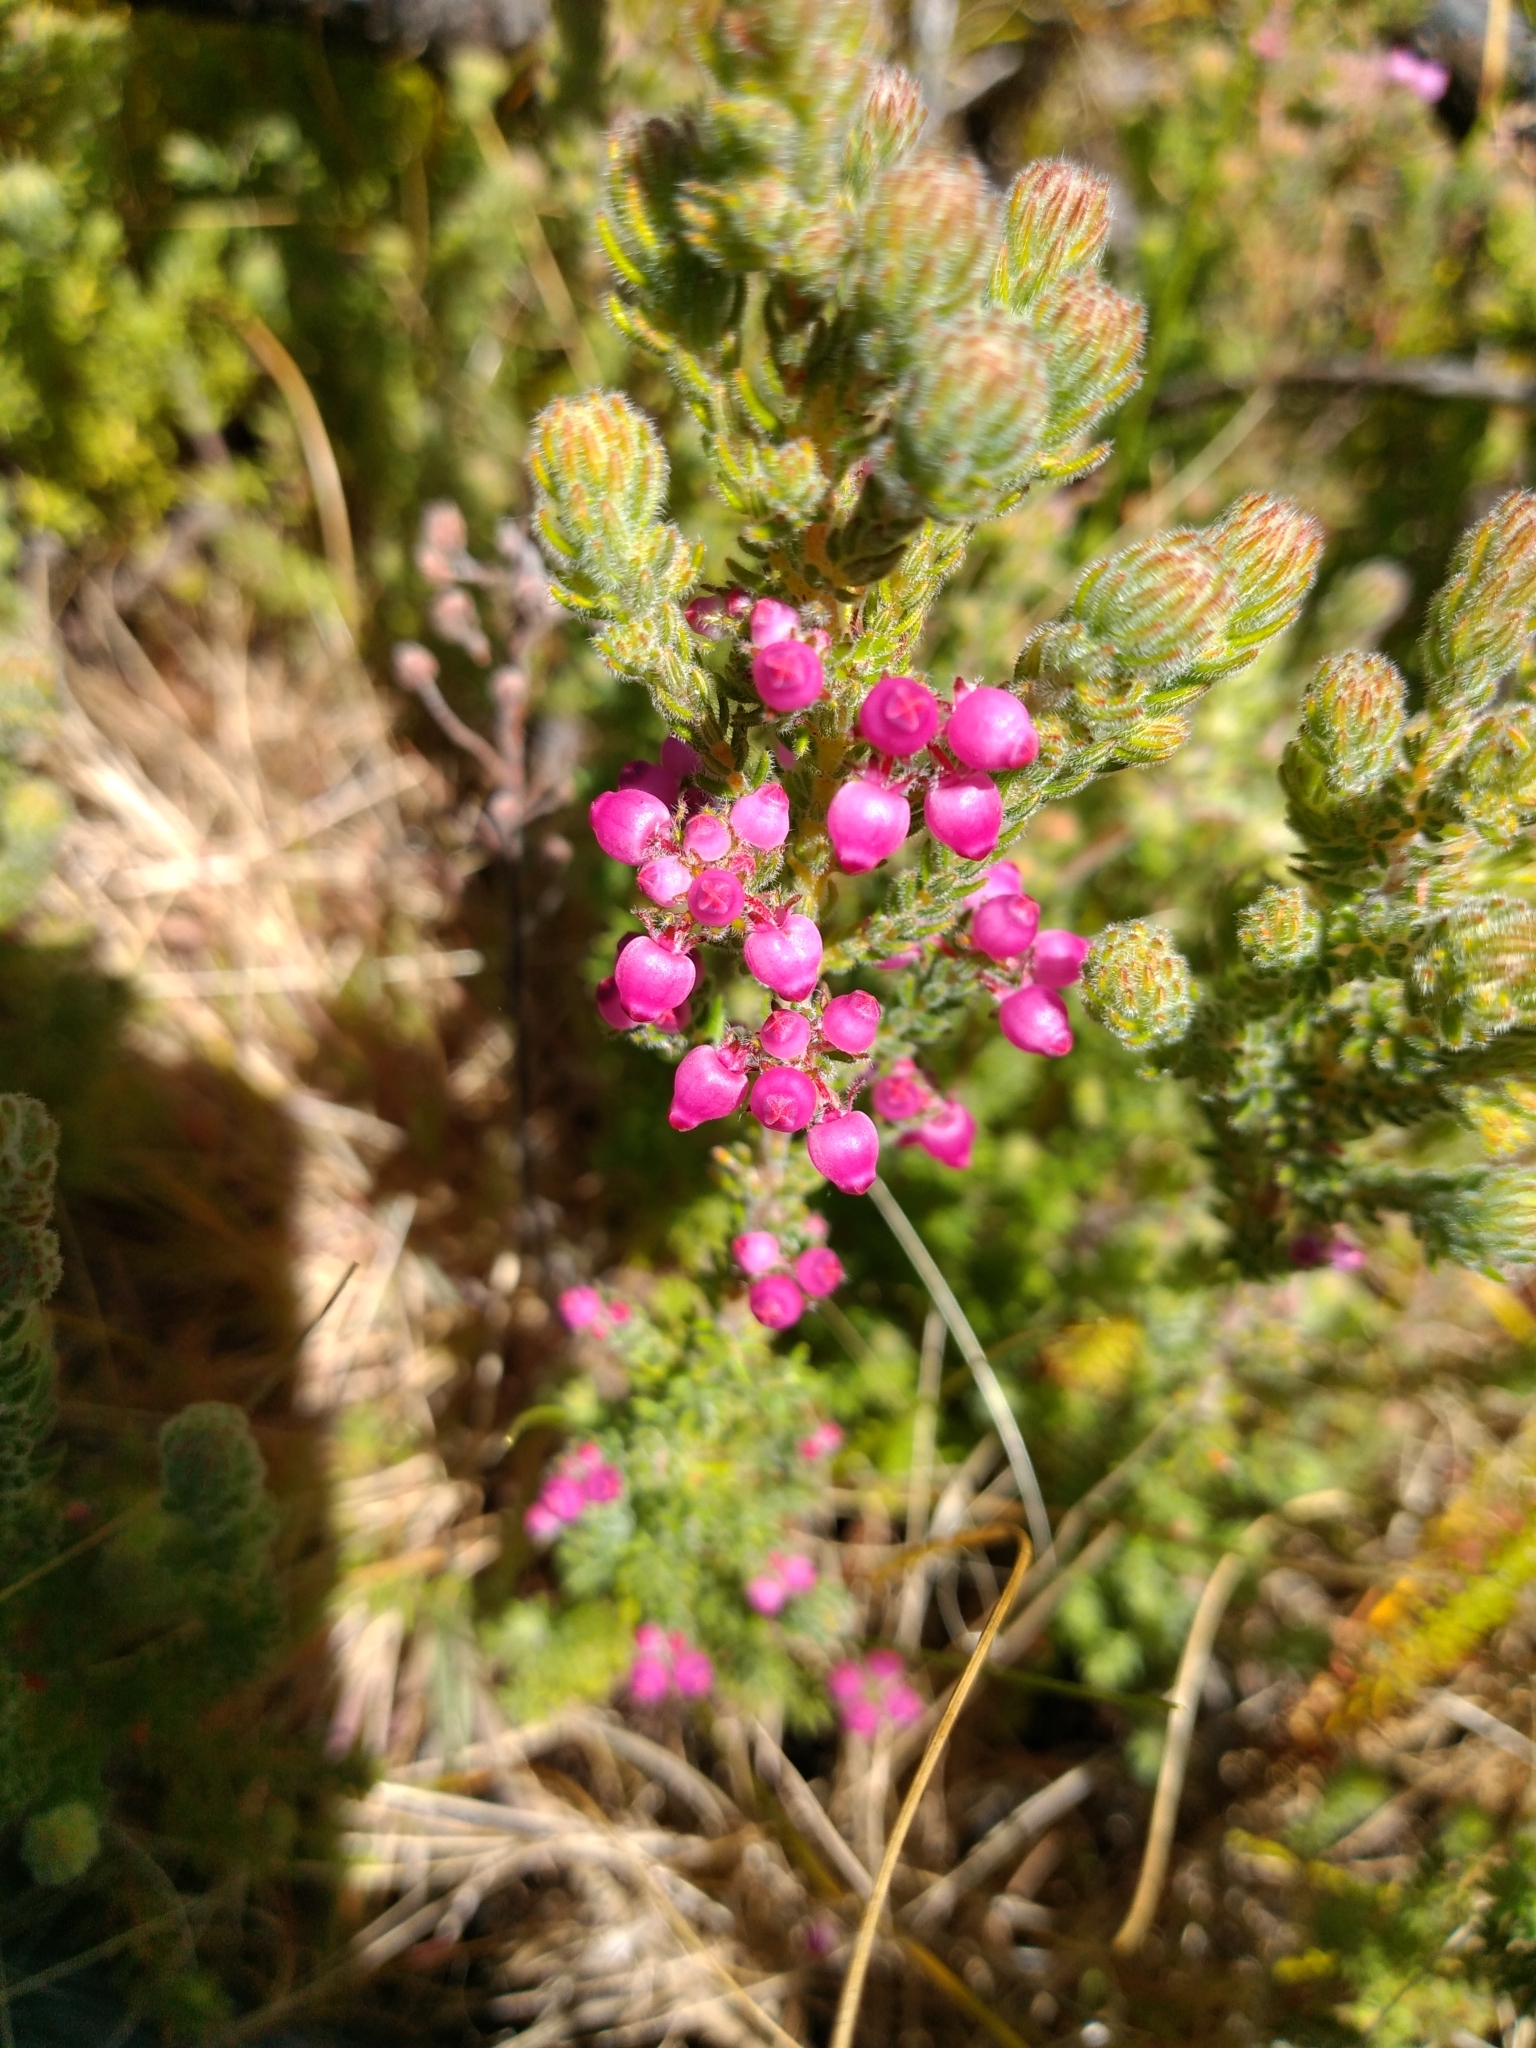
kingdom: Plantae
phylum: Tracheophyta
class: Magnoliopsida
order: Ericales
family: Ericaceae
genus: Erica
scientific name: Erica bergiana
